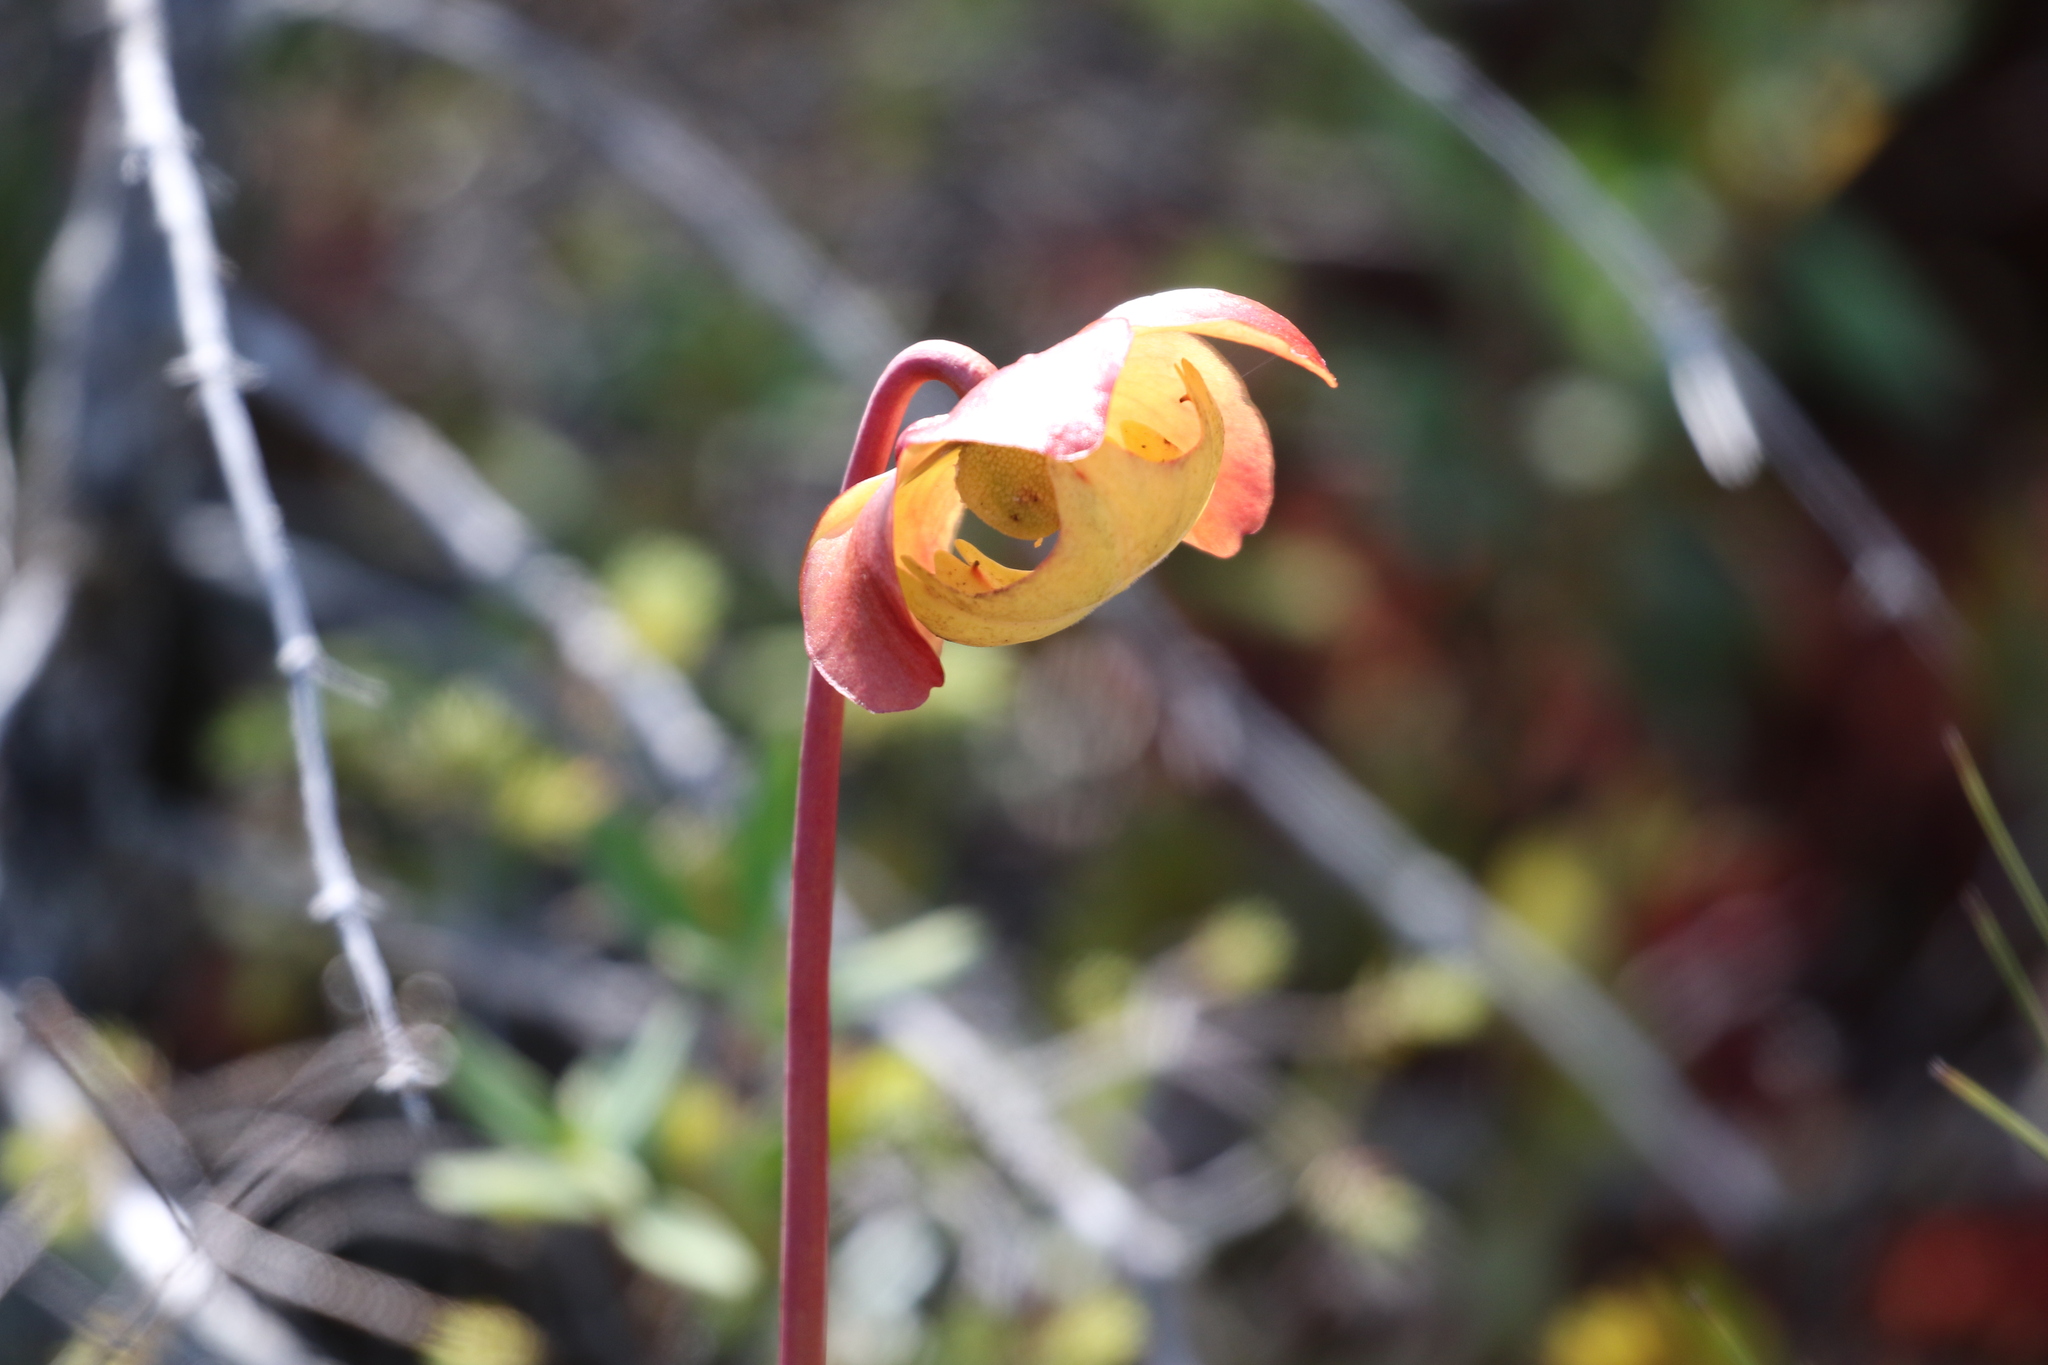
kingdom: Plantae
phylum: Tracheophyta
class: Magnoliopsida
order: Ericales
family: Sarraceniaceae
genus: Sarracenia
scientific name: Sarracenia purpurea
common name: Pitcherplant
